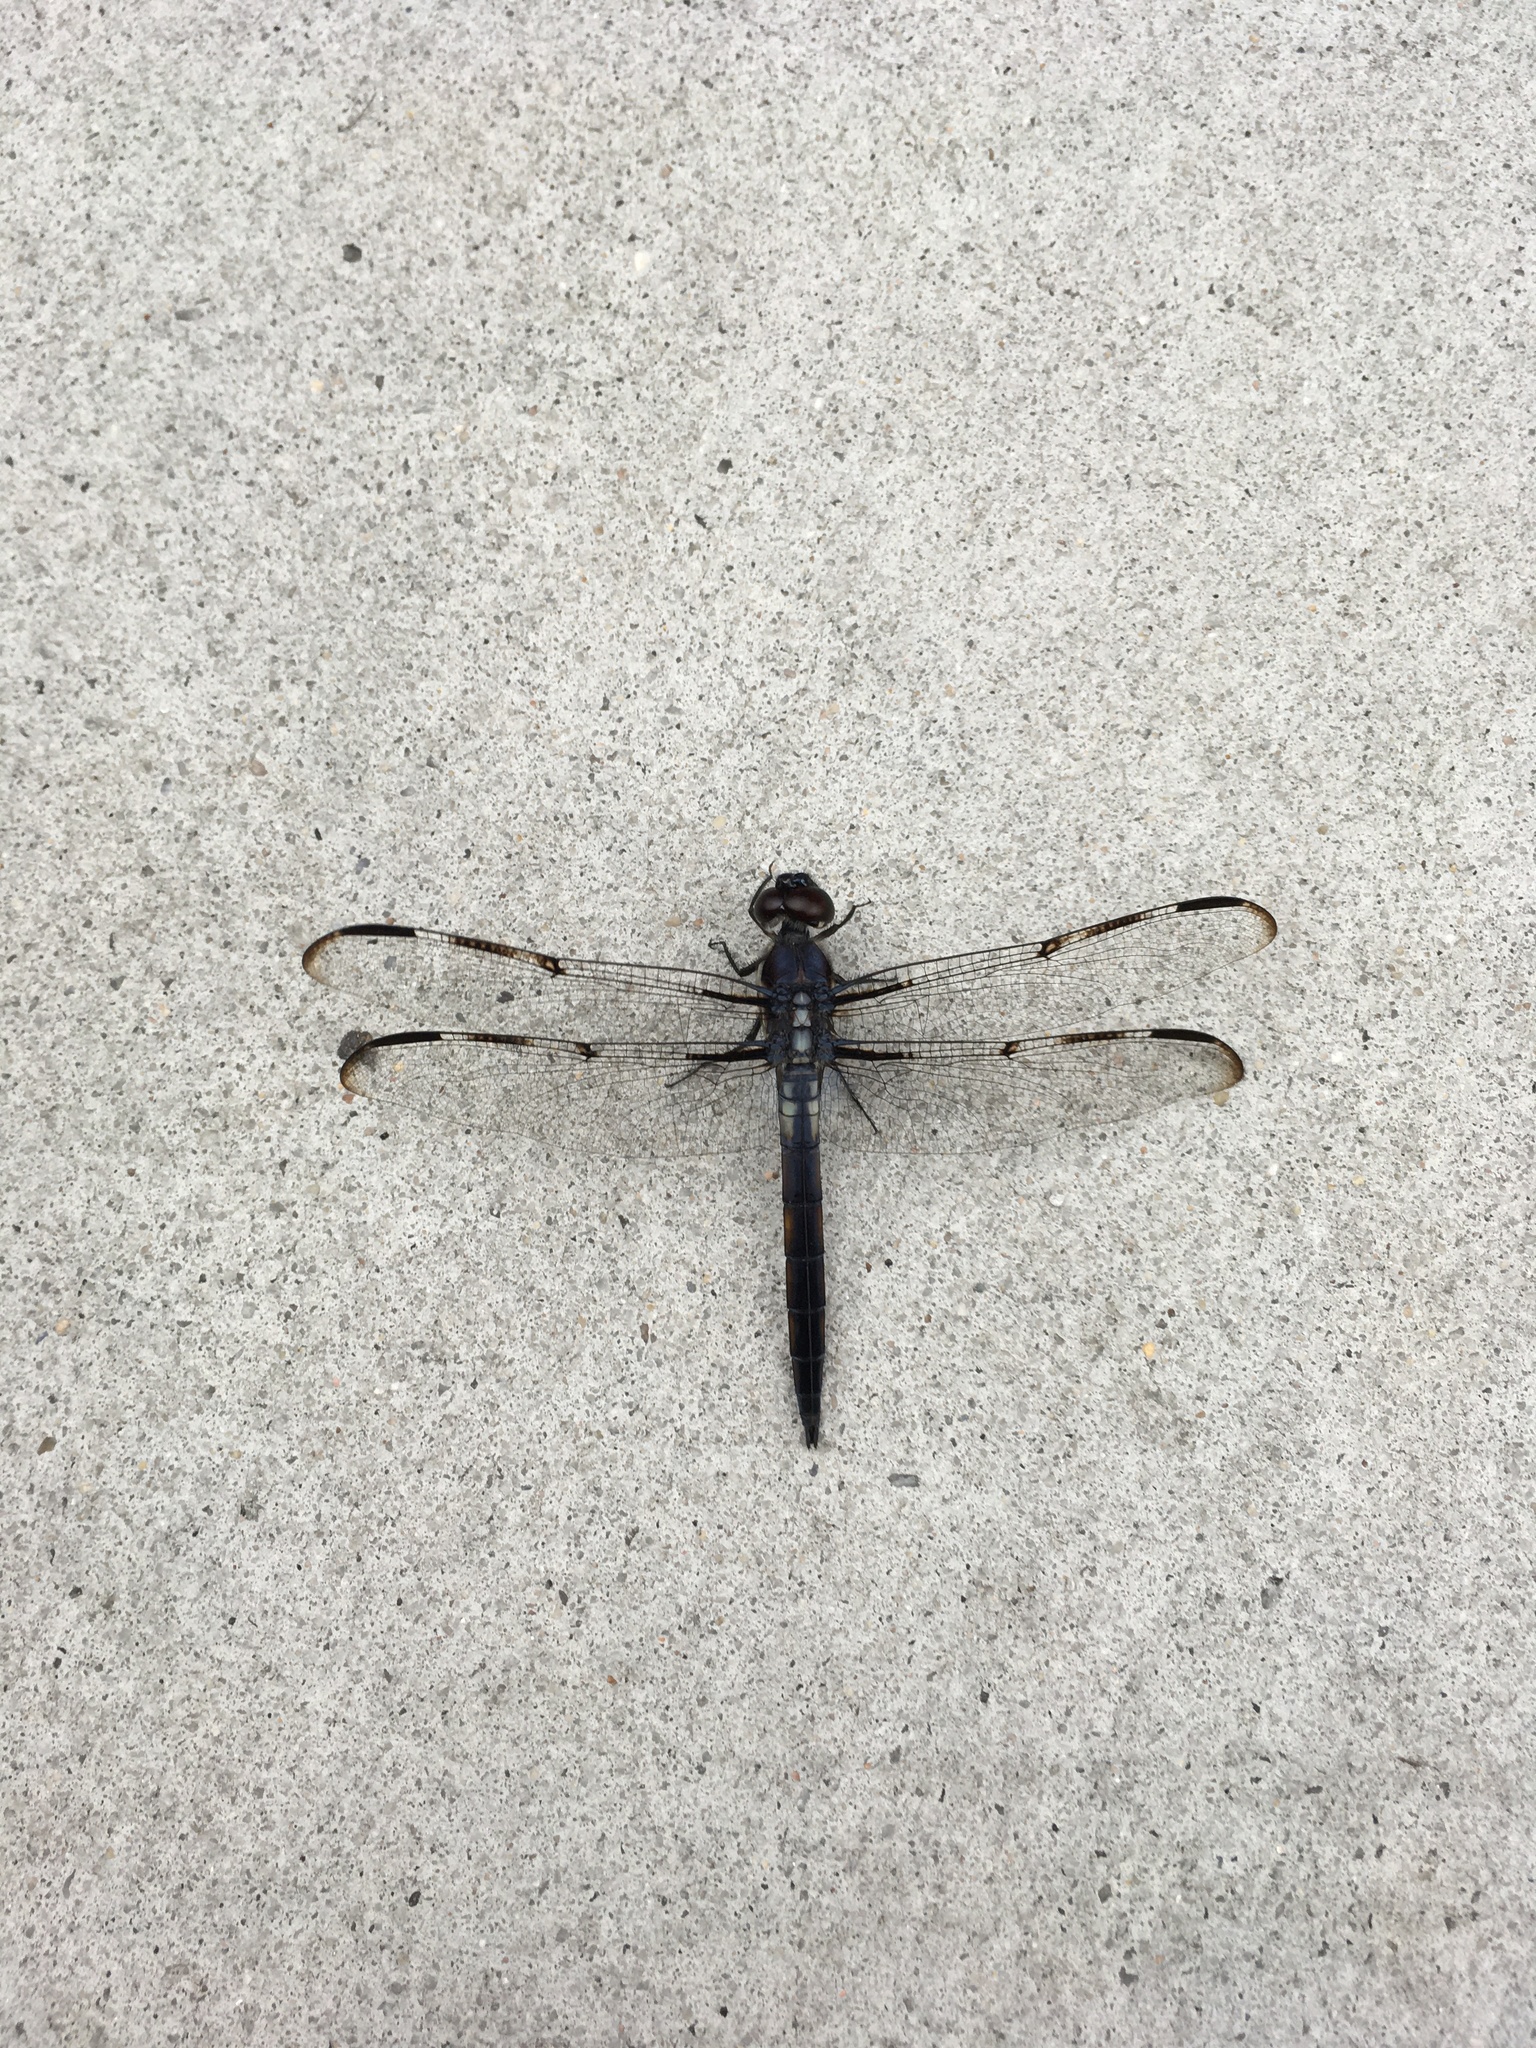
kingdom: Animalia
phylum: Arthropoda
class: Insecta
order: Odonata
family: Libellulidae
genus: Libellula
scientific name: Libellula axilena
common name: Bar-winged skimmer
